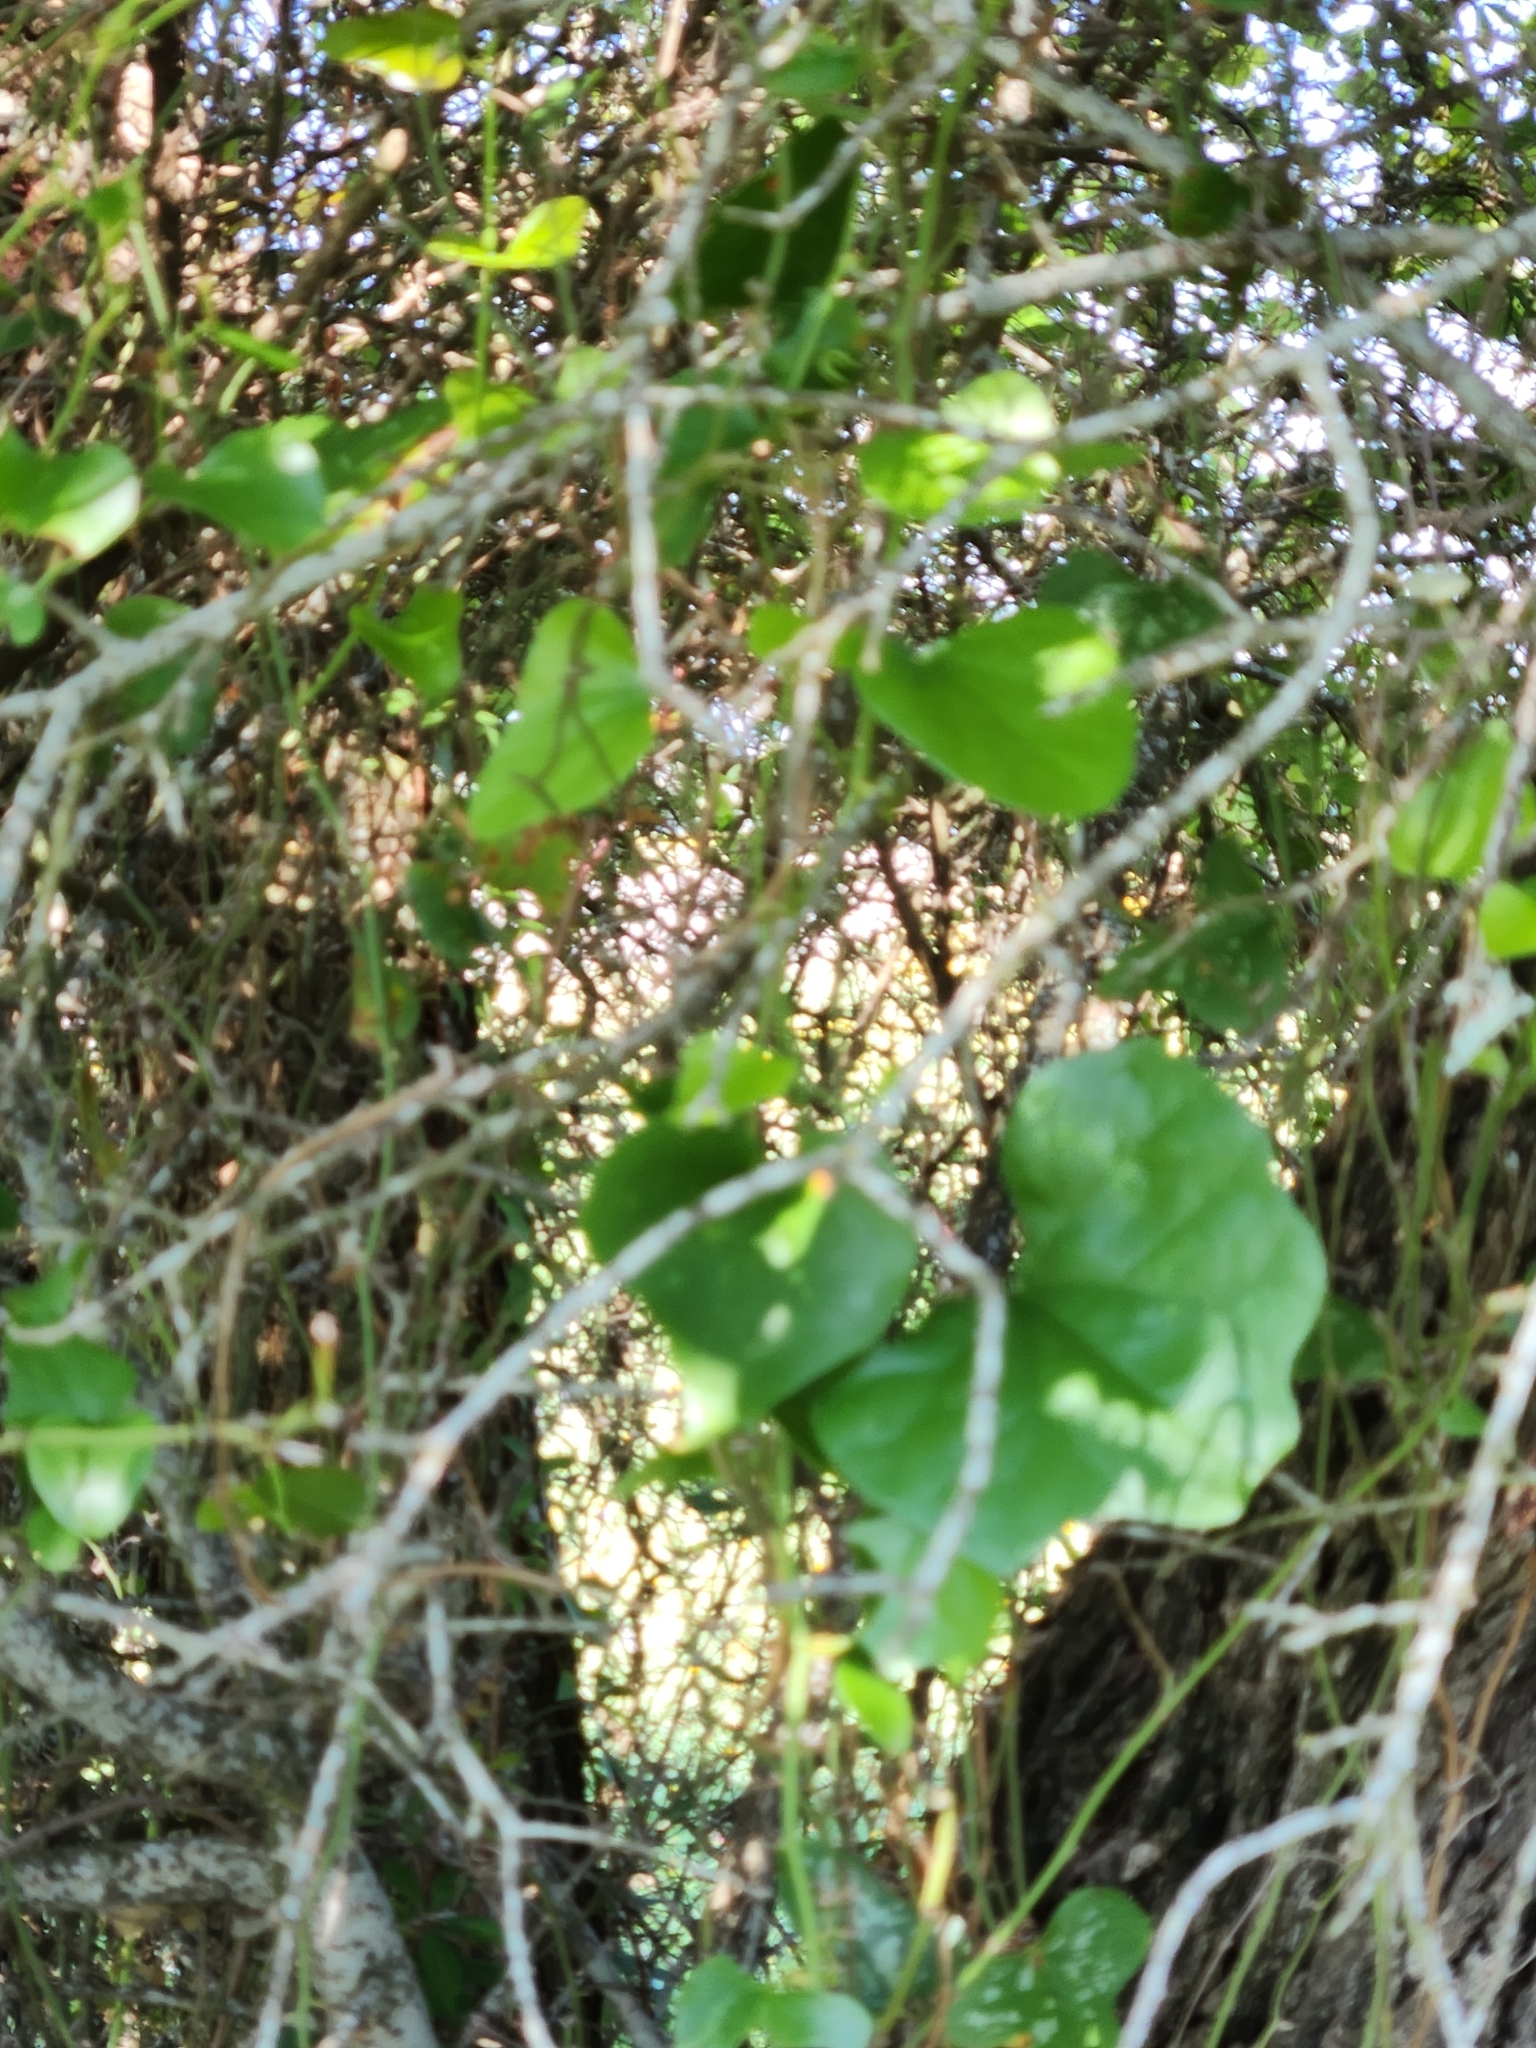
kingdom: Plantae
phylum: Tracheophyta
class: Magnoliopsida
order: Ranunculales
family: Menispermaceae
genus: Cocculus
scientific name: Cocculus carolinus
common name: Carolina moonseed
